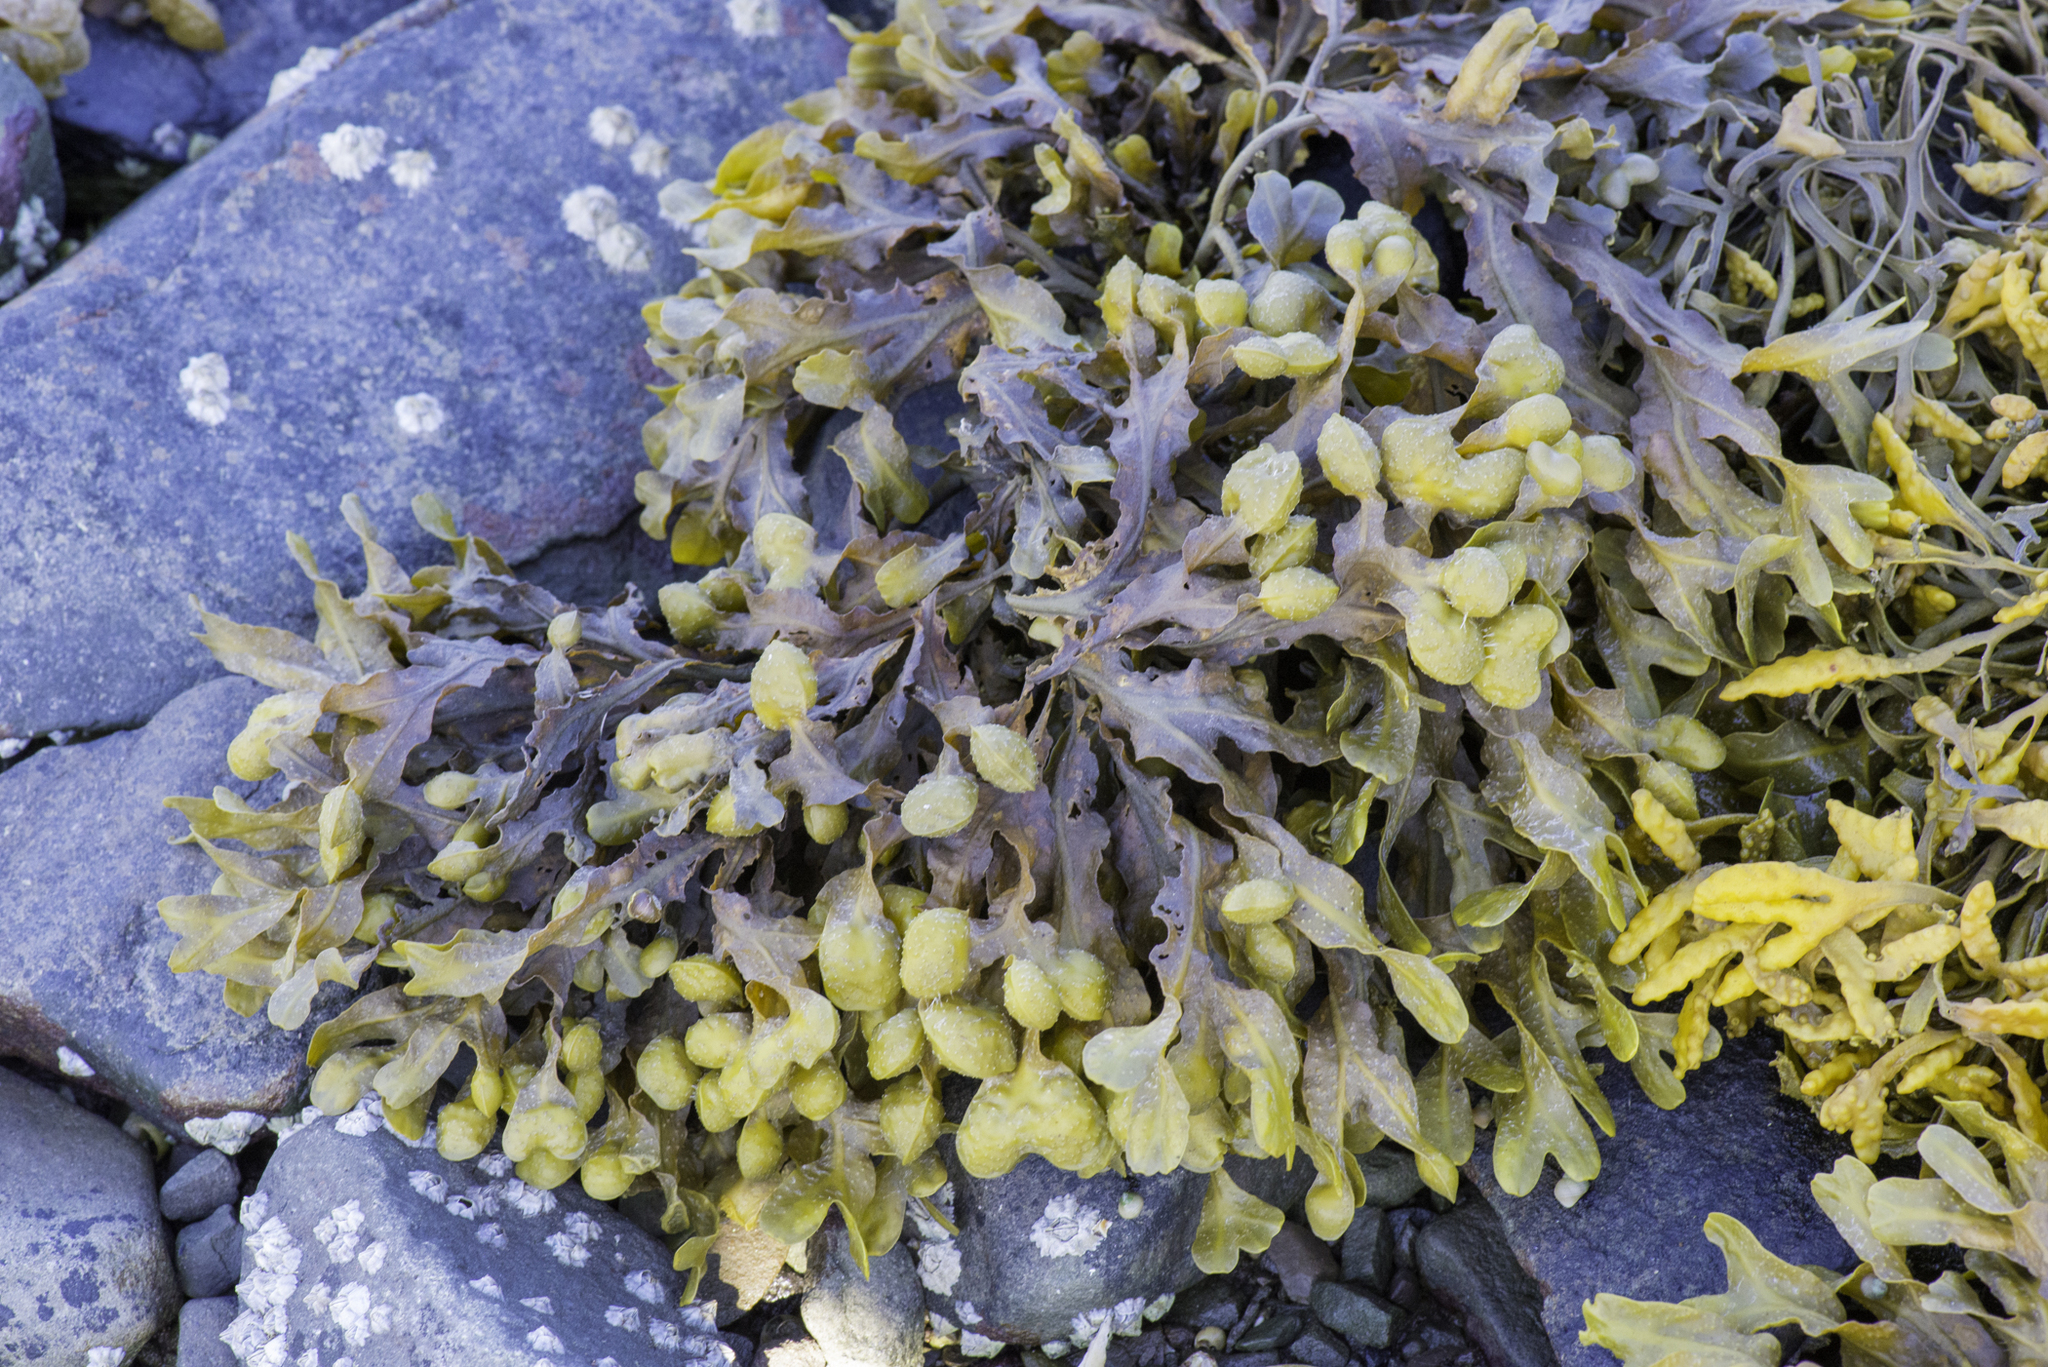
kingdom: Chromista
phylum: Ochrophyta
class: Phaeophyceae
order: Fucales
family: Fucaceae
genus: Fucus
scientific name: Fucus spiralis
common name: Spiral wrack
